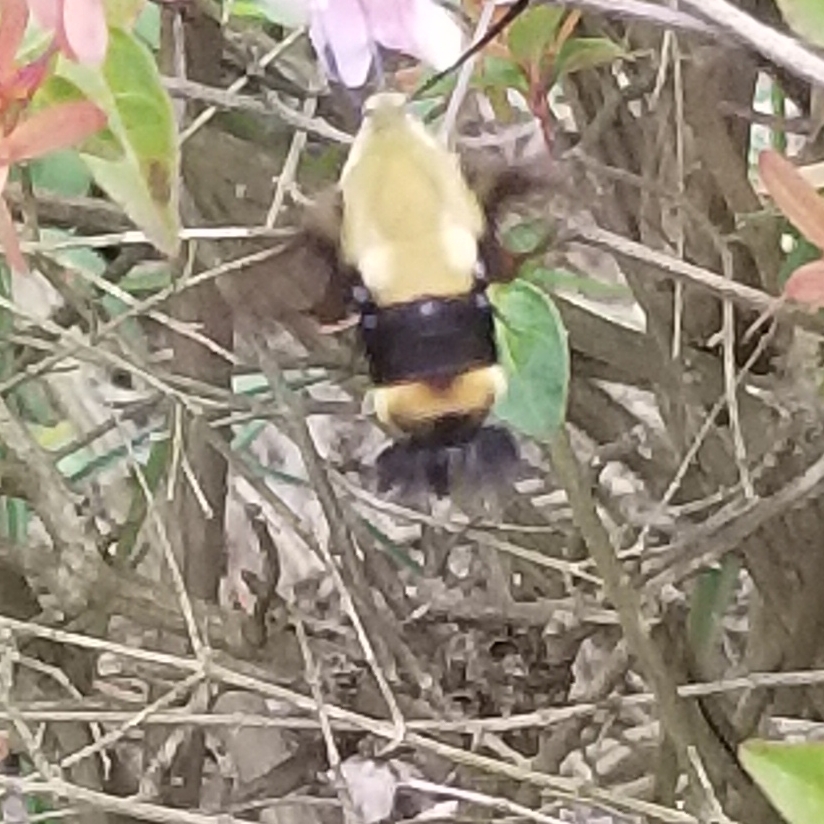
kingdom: Animalia
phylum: Arthropoda
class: Insecta
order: Lepidoptera
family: Sphingidae
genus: Hemaris
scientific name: Hemaris diffinis
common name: Bumblebee moth
